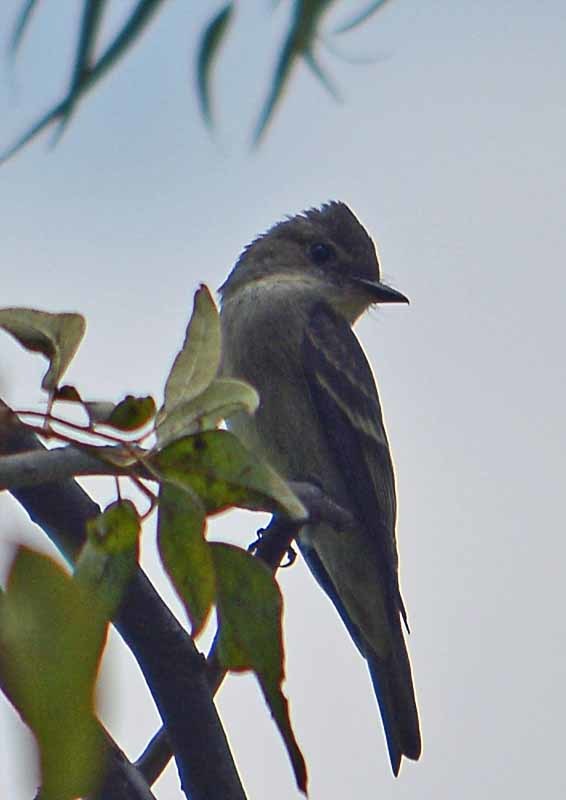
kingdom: Animalia
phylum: Chordata
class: Aves
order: Passeriformes
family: Tyrannidae
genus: Contopus
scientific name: Contopus
